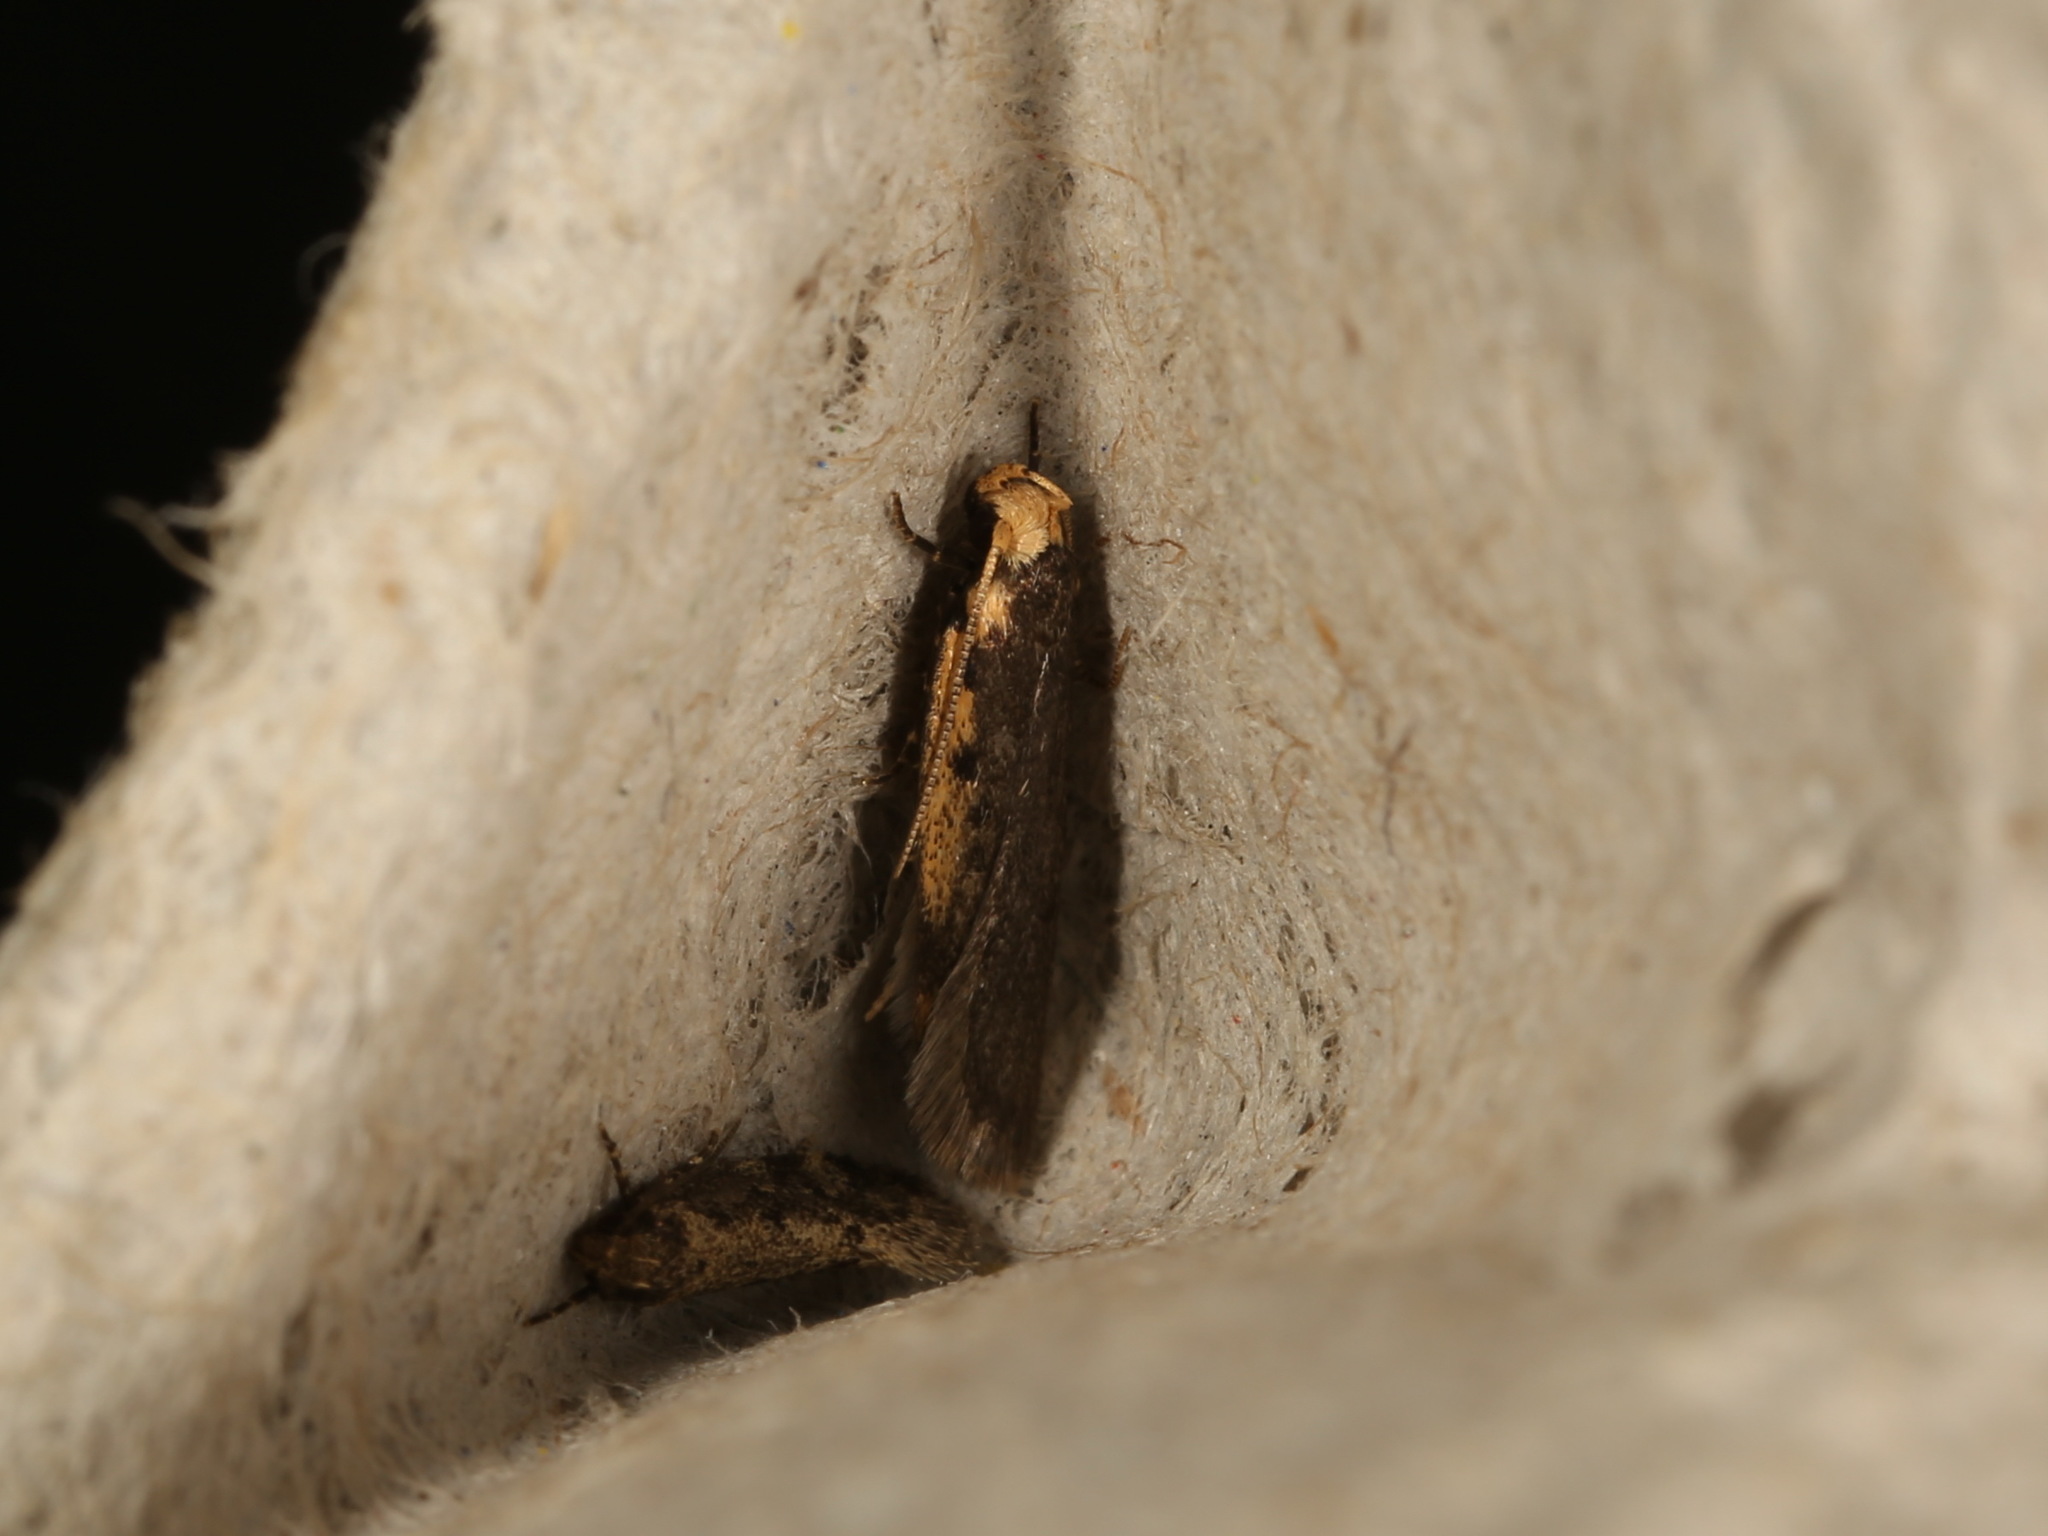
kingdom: Animalia
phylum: Arthropoda
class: Insecta
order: Lepidoptera
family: Oecophoridae
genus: Hoplostega
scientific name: Hoplostega ochroma
